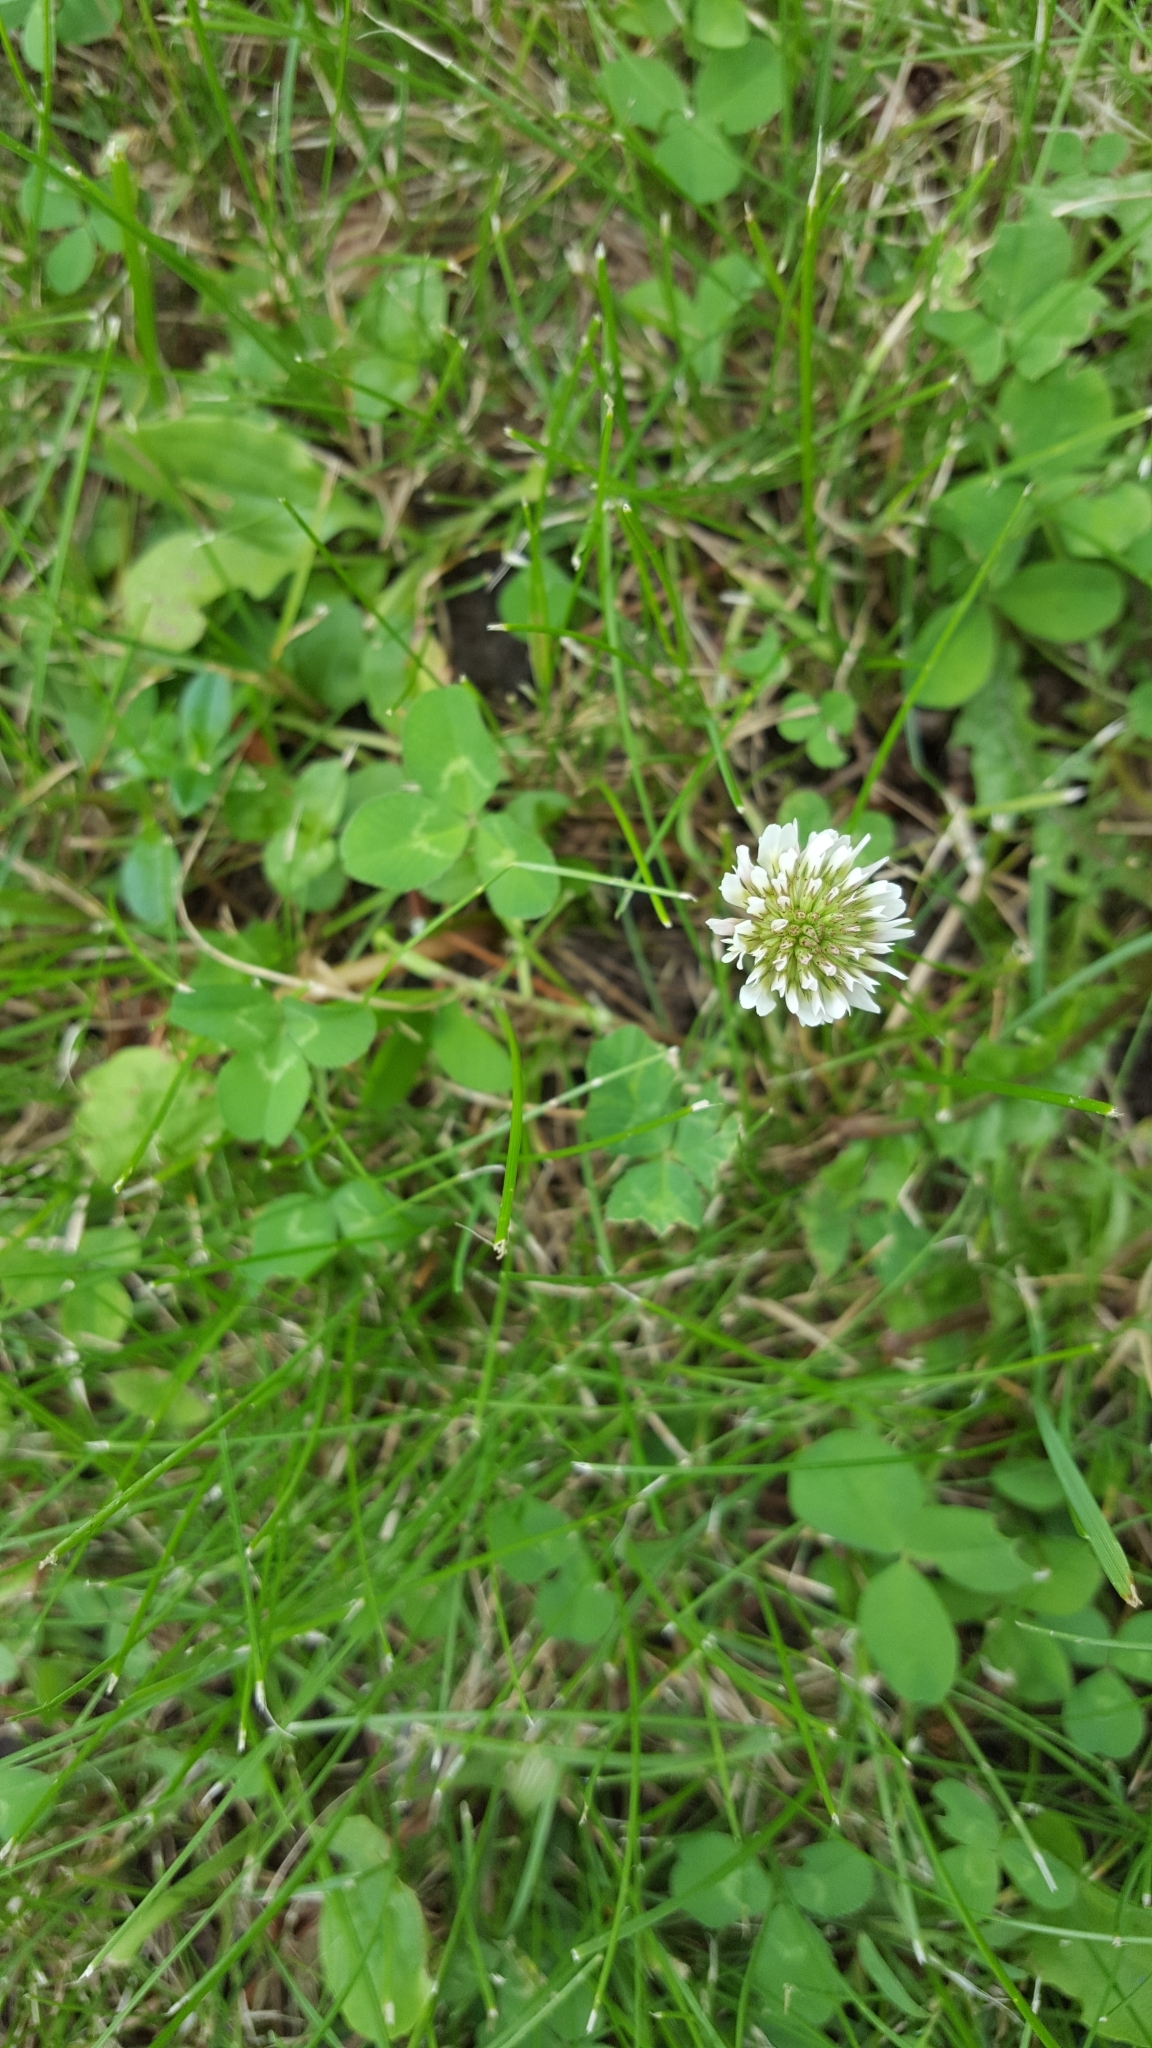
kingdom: Plantae
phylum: Tracheophyta
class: Magnoliopsida
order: Fabales
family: Fabaceae
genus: Trifolium
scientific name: Trifolium repens
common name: White clover
